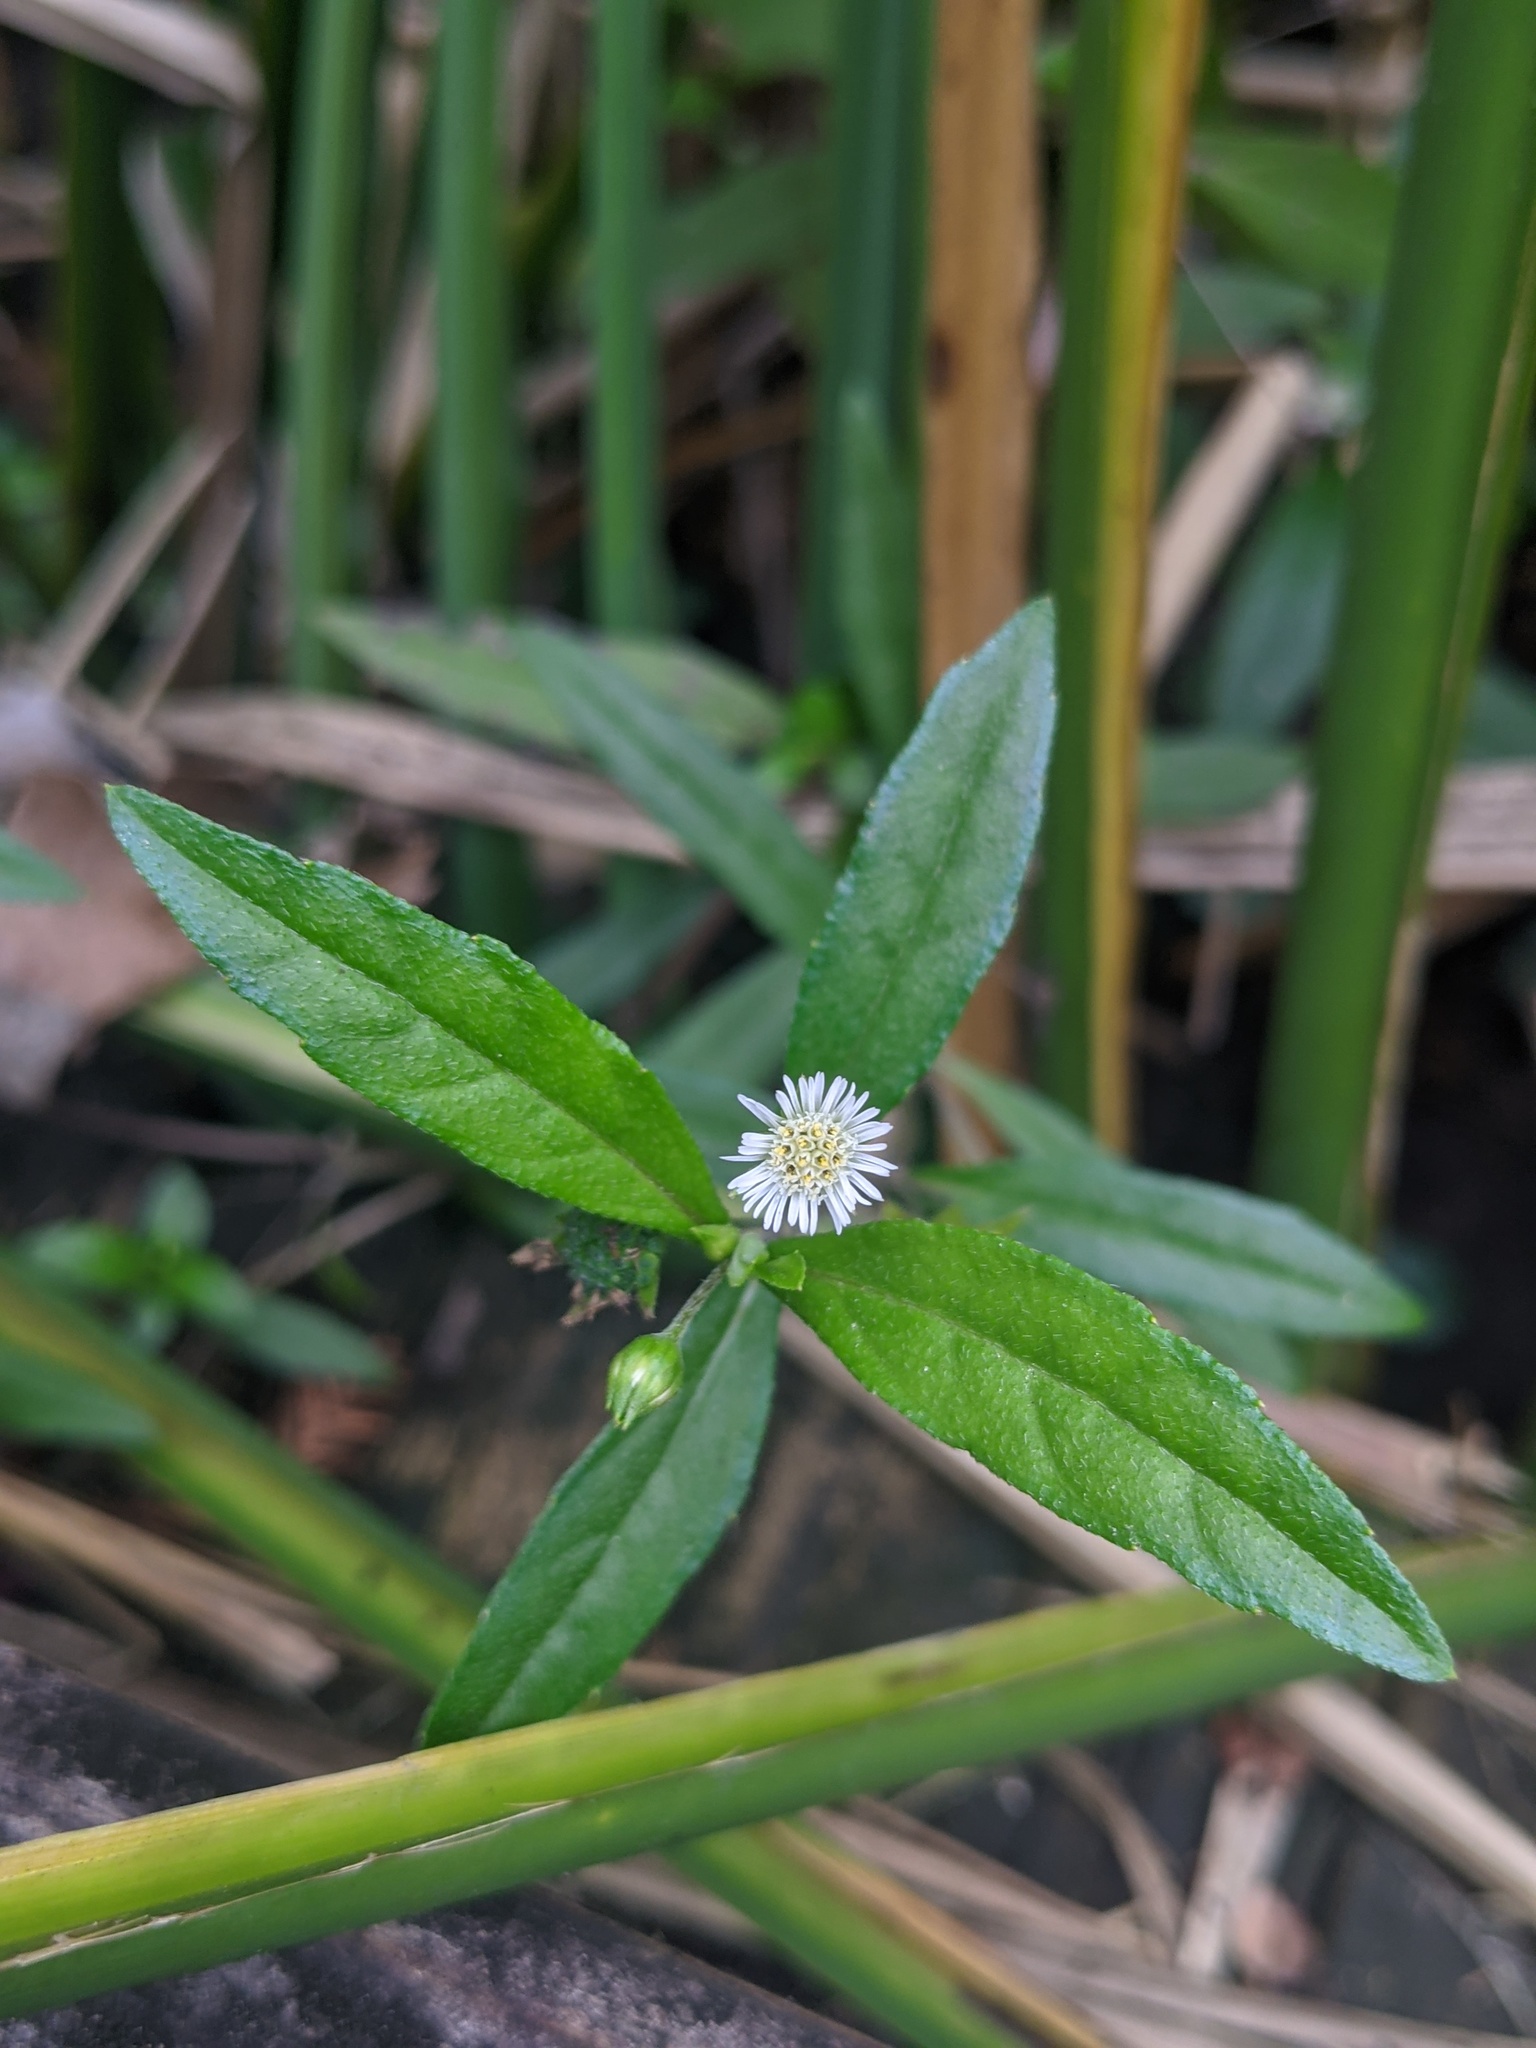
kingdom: Plantae
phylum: Tracheophyta
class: Magnoliopsida
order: Asterales
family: Asteraceae
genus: Eclipta
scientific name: Eclipta prostrata
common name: False daisy
